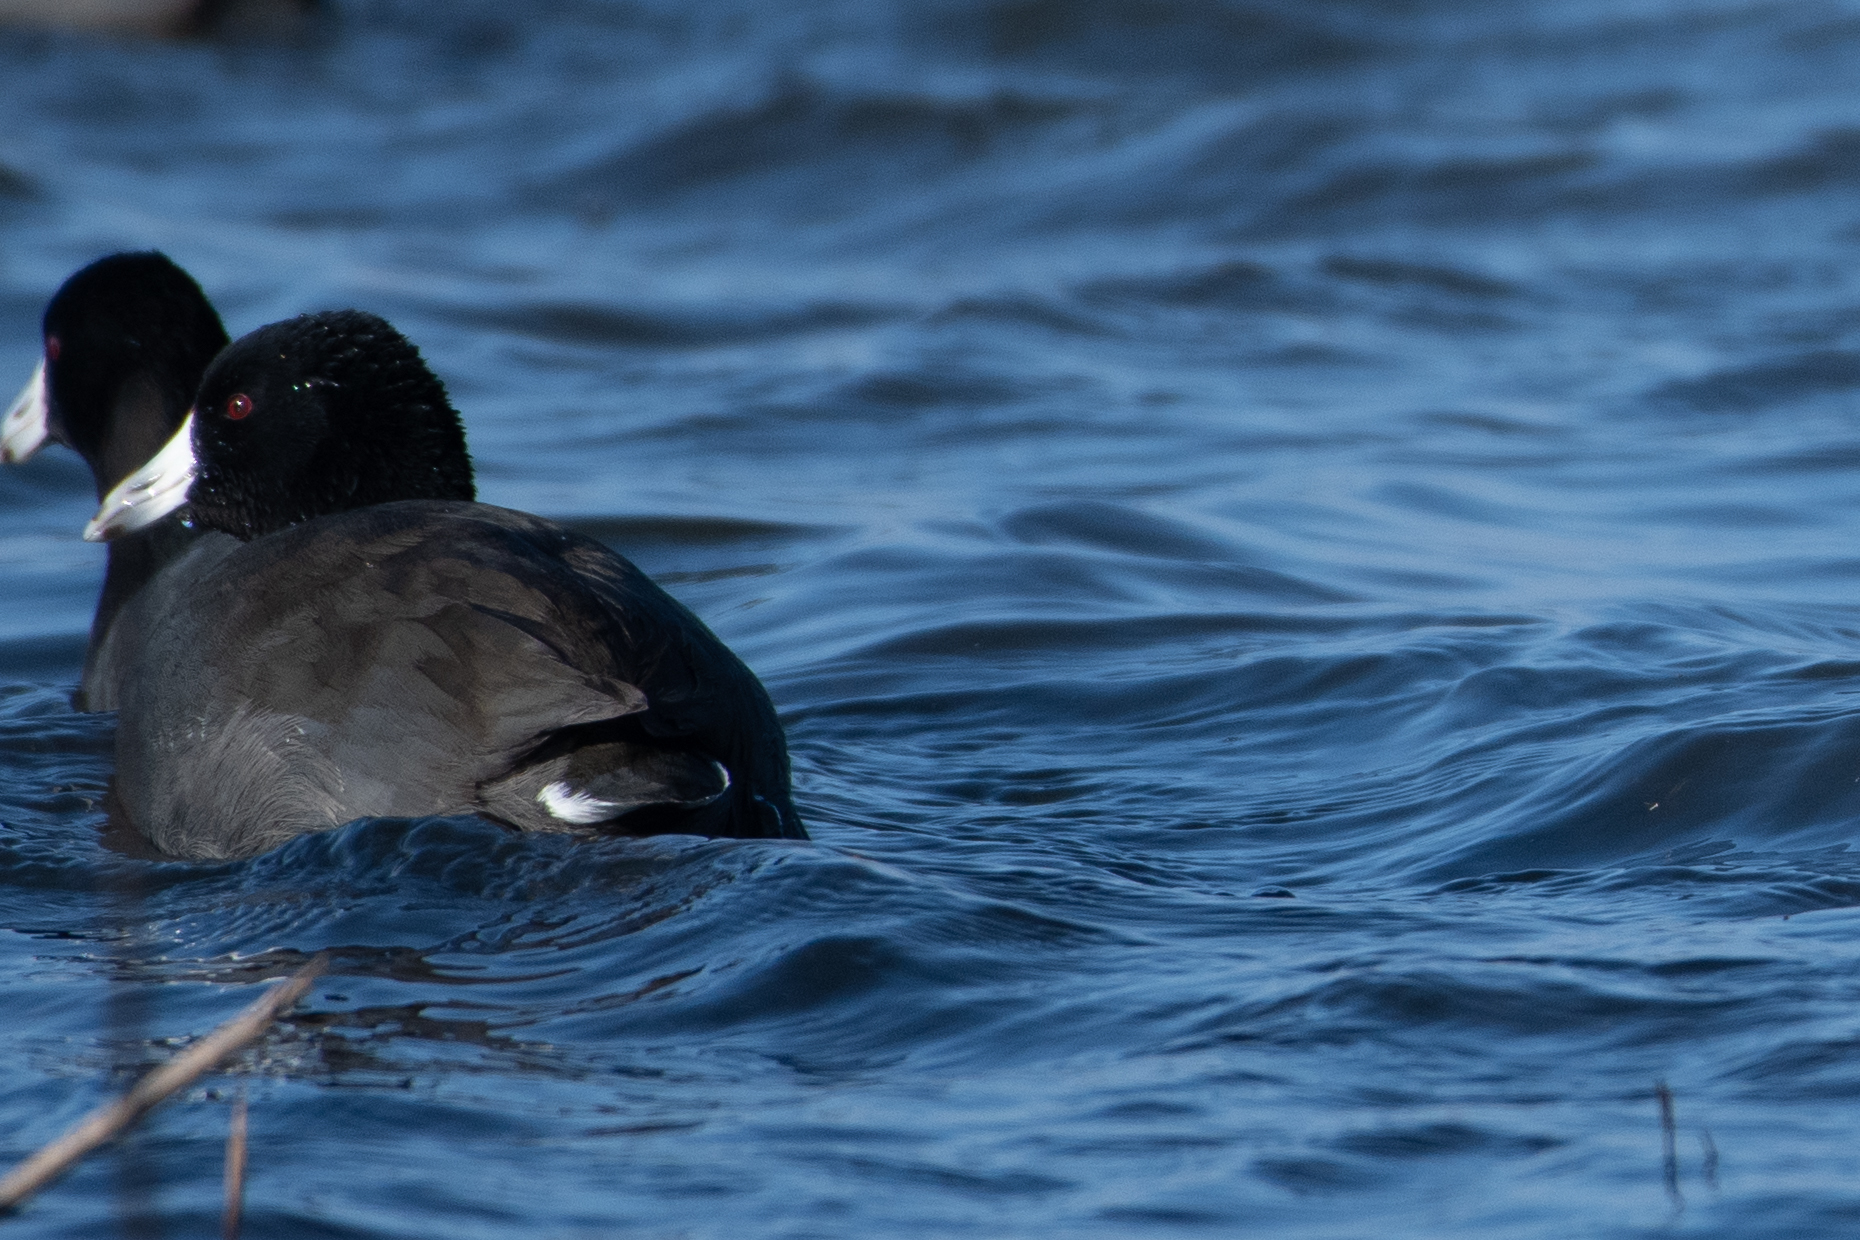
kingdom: Animalia
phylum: Chordata
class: Aves
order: Gruiformes
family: Rallidae
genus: Fulica
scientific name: Fulica americana
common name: American coot
